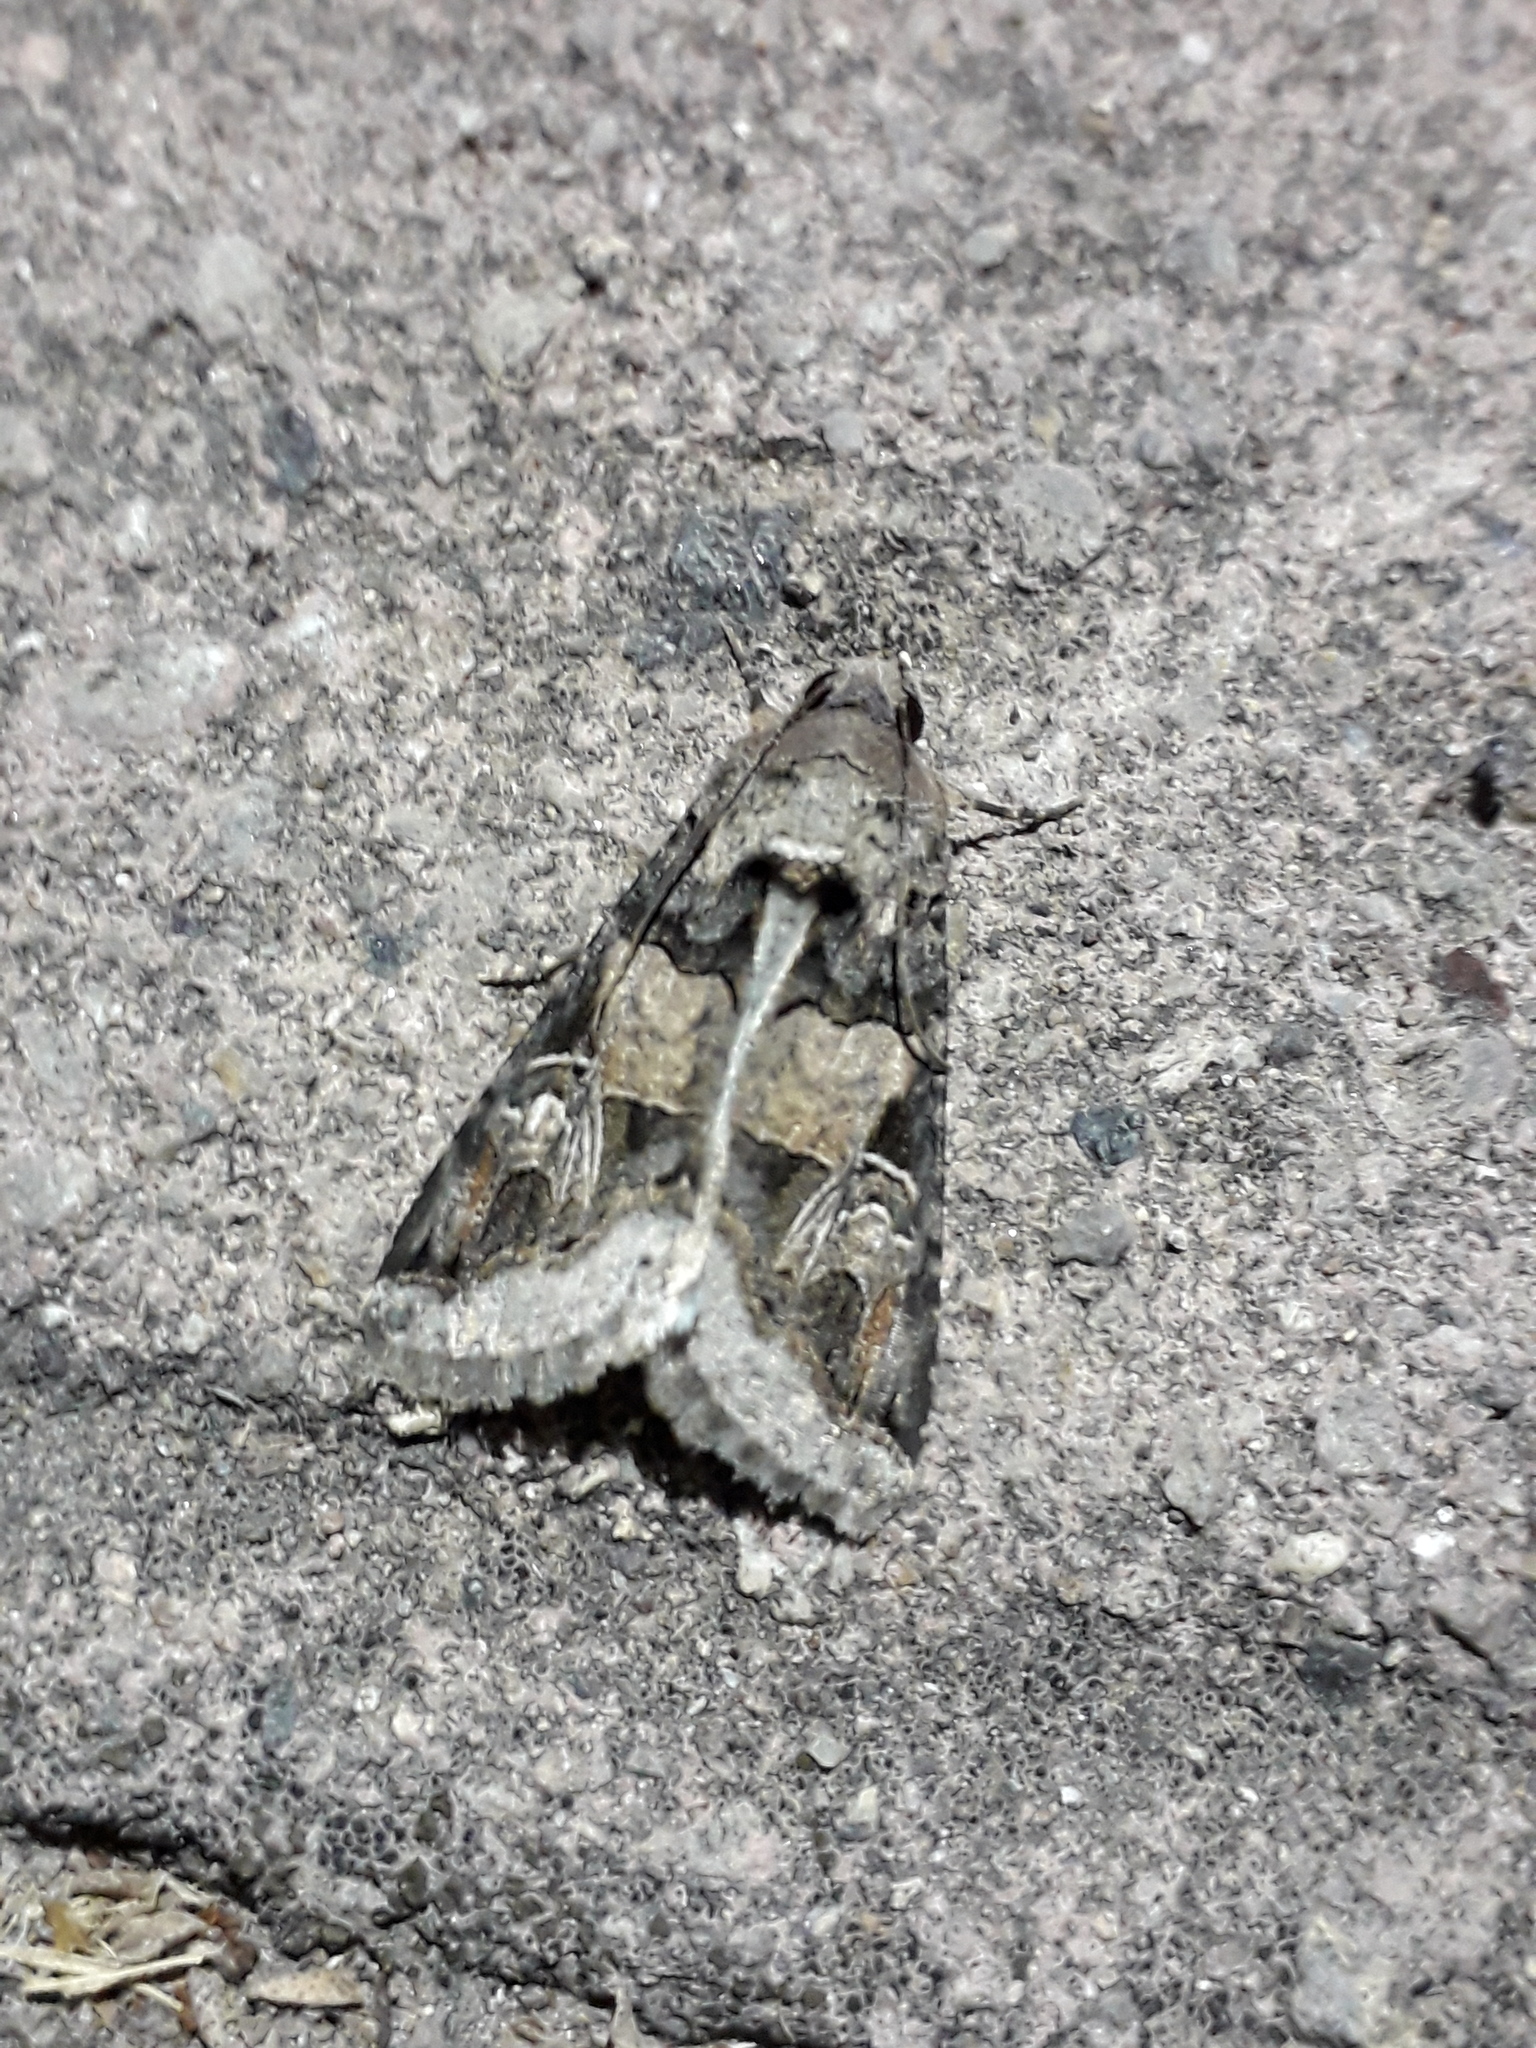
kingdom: Animalia
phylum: Arthropoda
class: Insecta
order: Lepidoptera
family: Erebidae
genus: Melipotis
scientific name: Melipotis novanda
